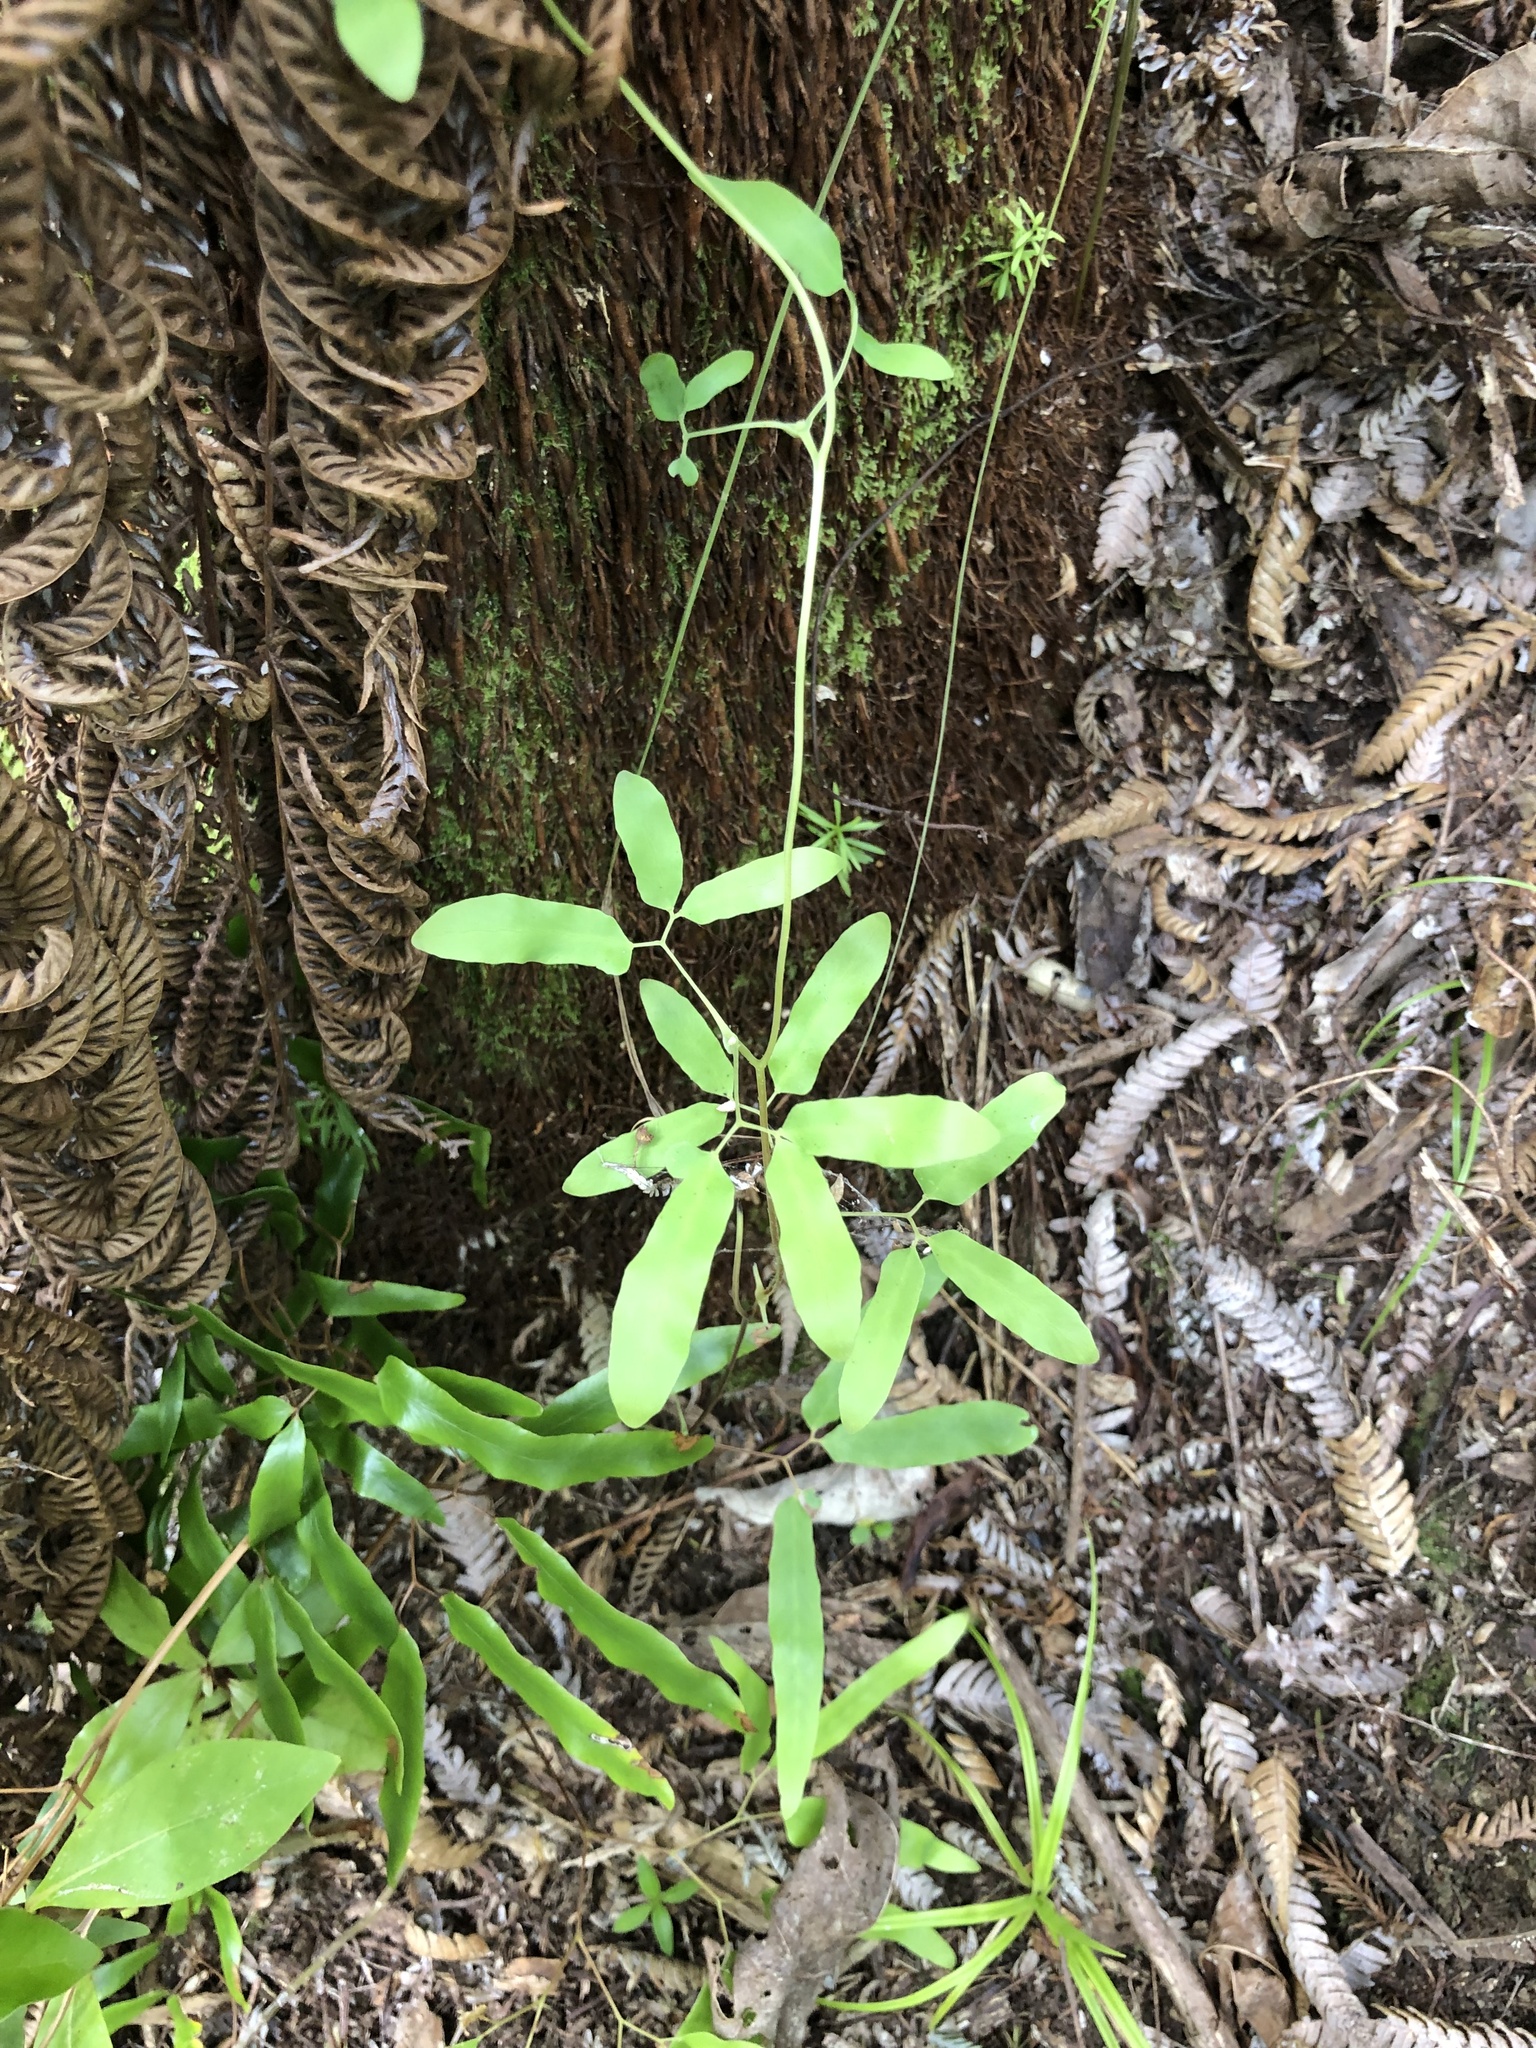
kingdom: Plantae
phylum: Tracheophyta
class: Polypodiopsida
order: Schizaeales
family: Lygodiaceae
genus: Lygodium
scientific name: Lygodium articulatum
